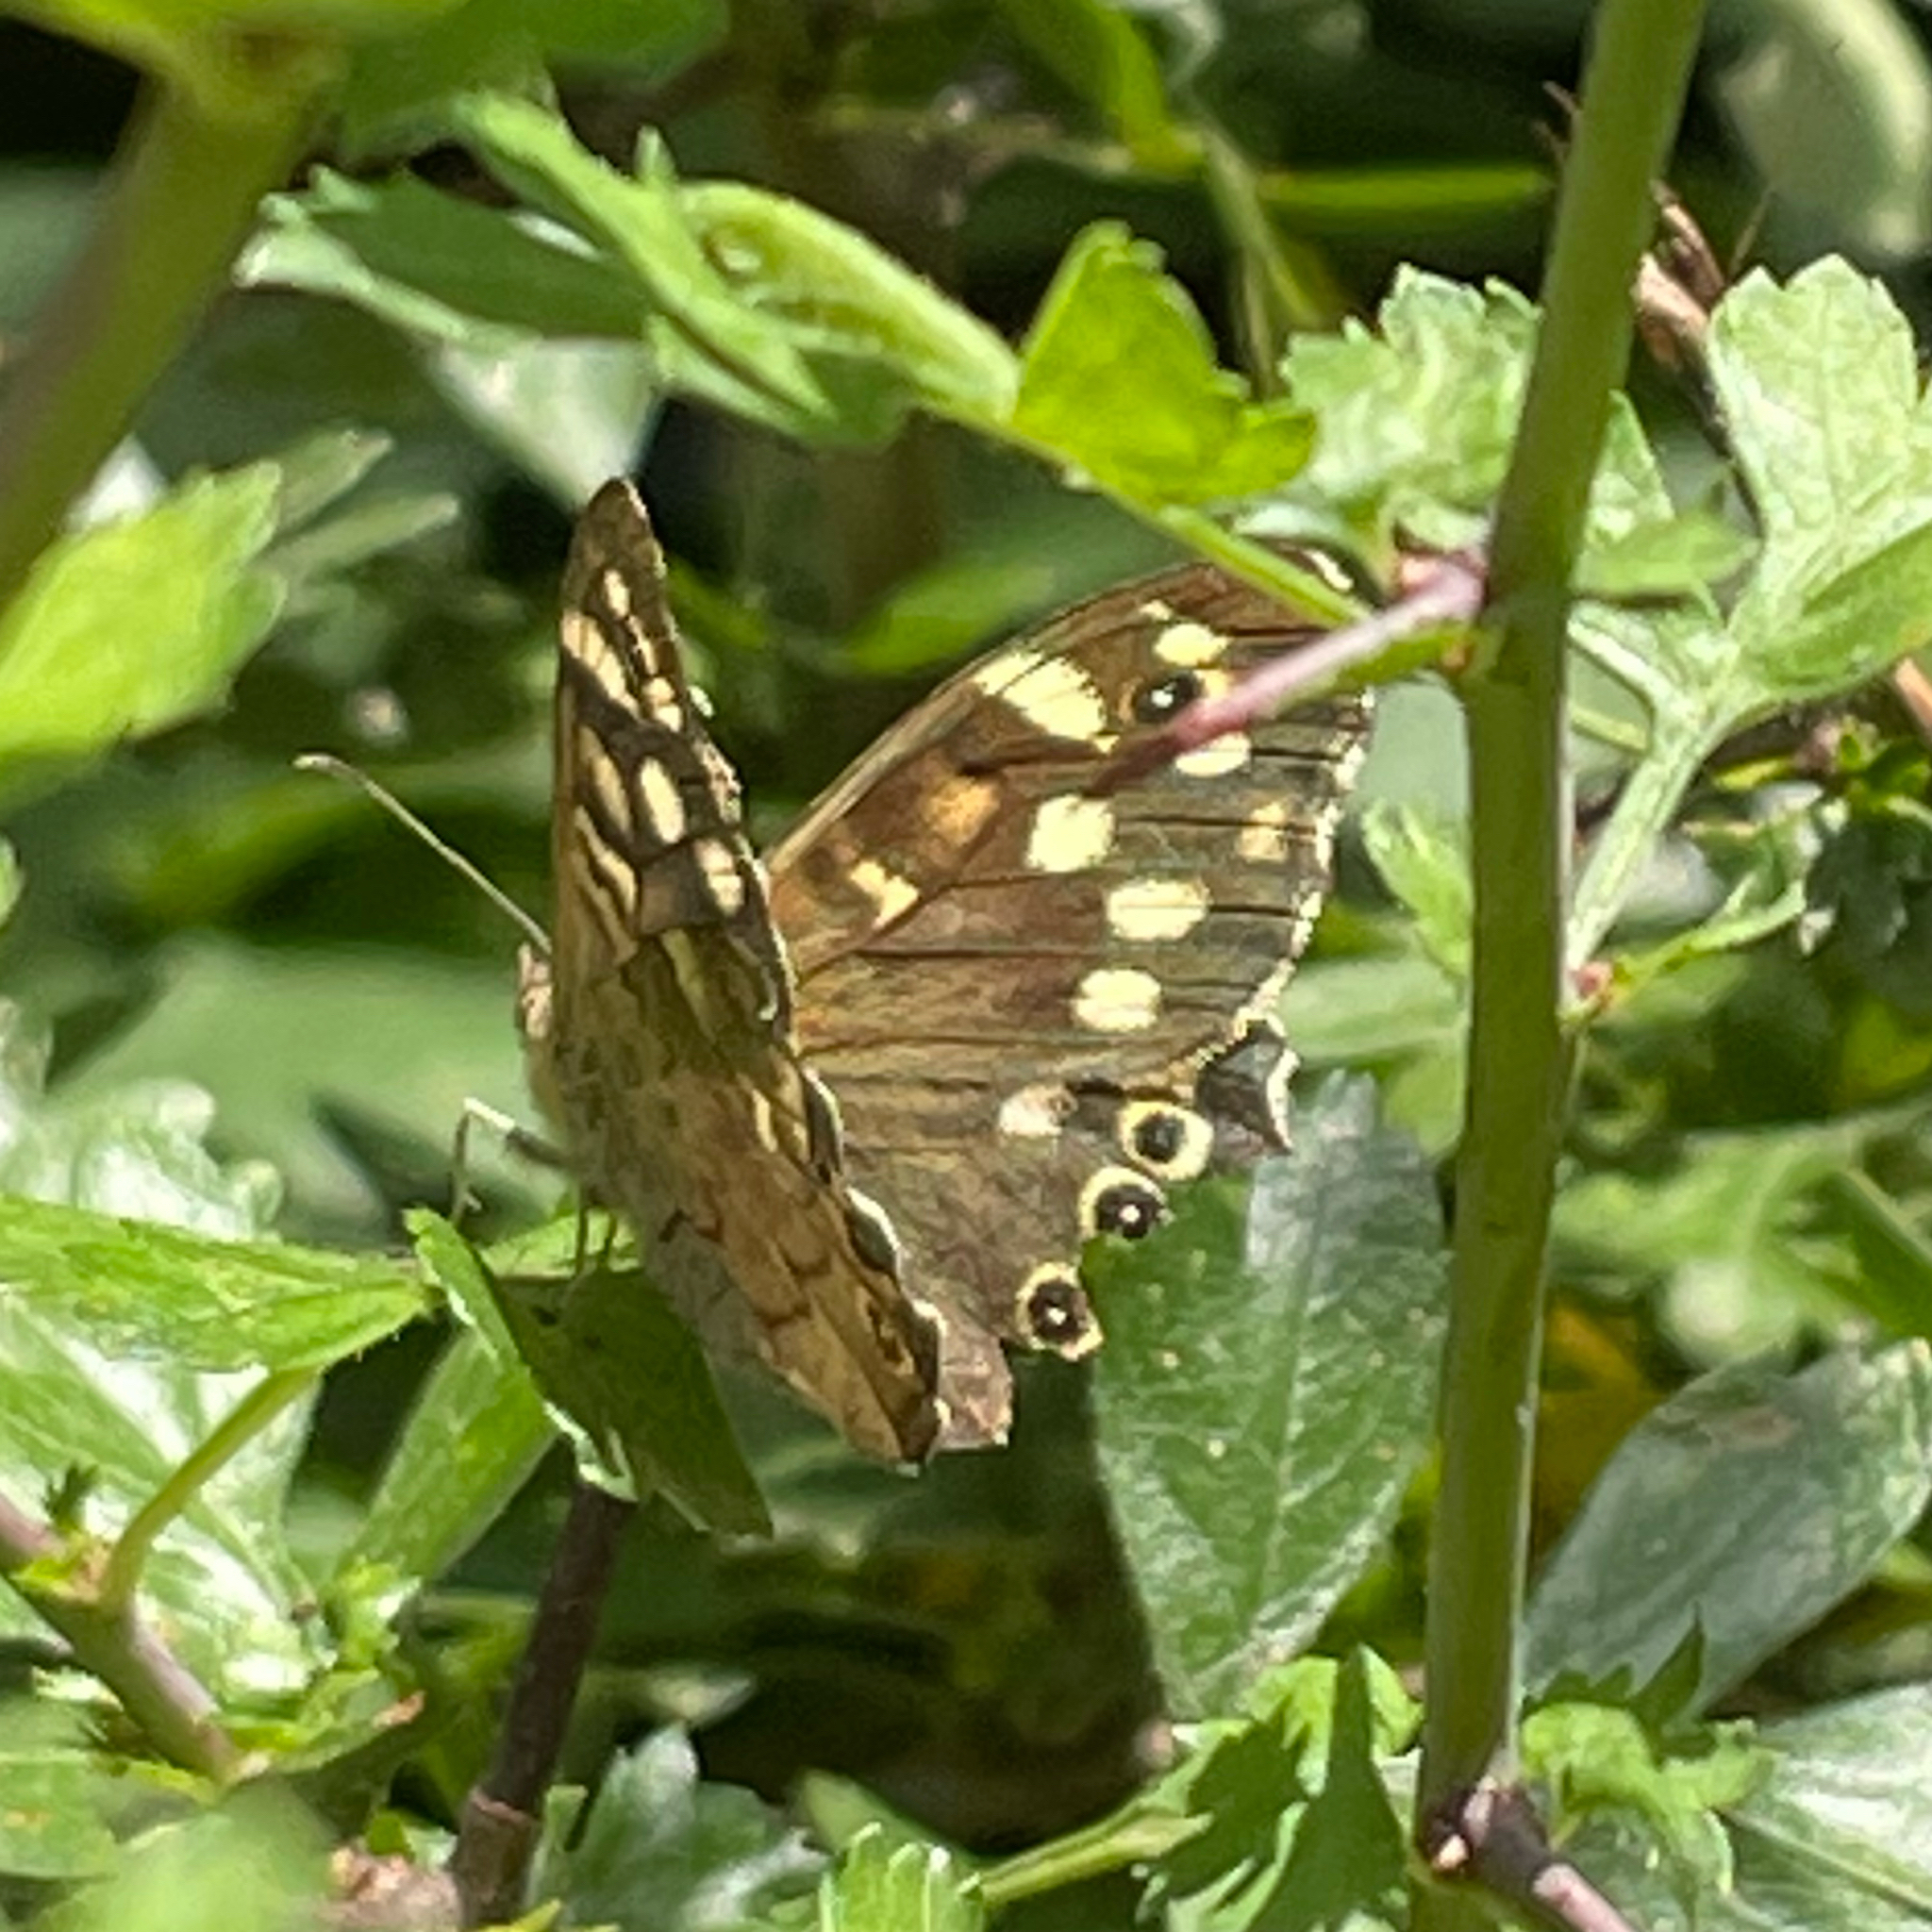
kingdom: Animalia
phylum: Arthropoda
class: Insecta
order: Lepidoptera
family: Nymphalidae
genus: Pararge
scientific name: Pararge aegeria
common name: Speckled wood
